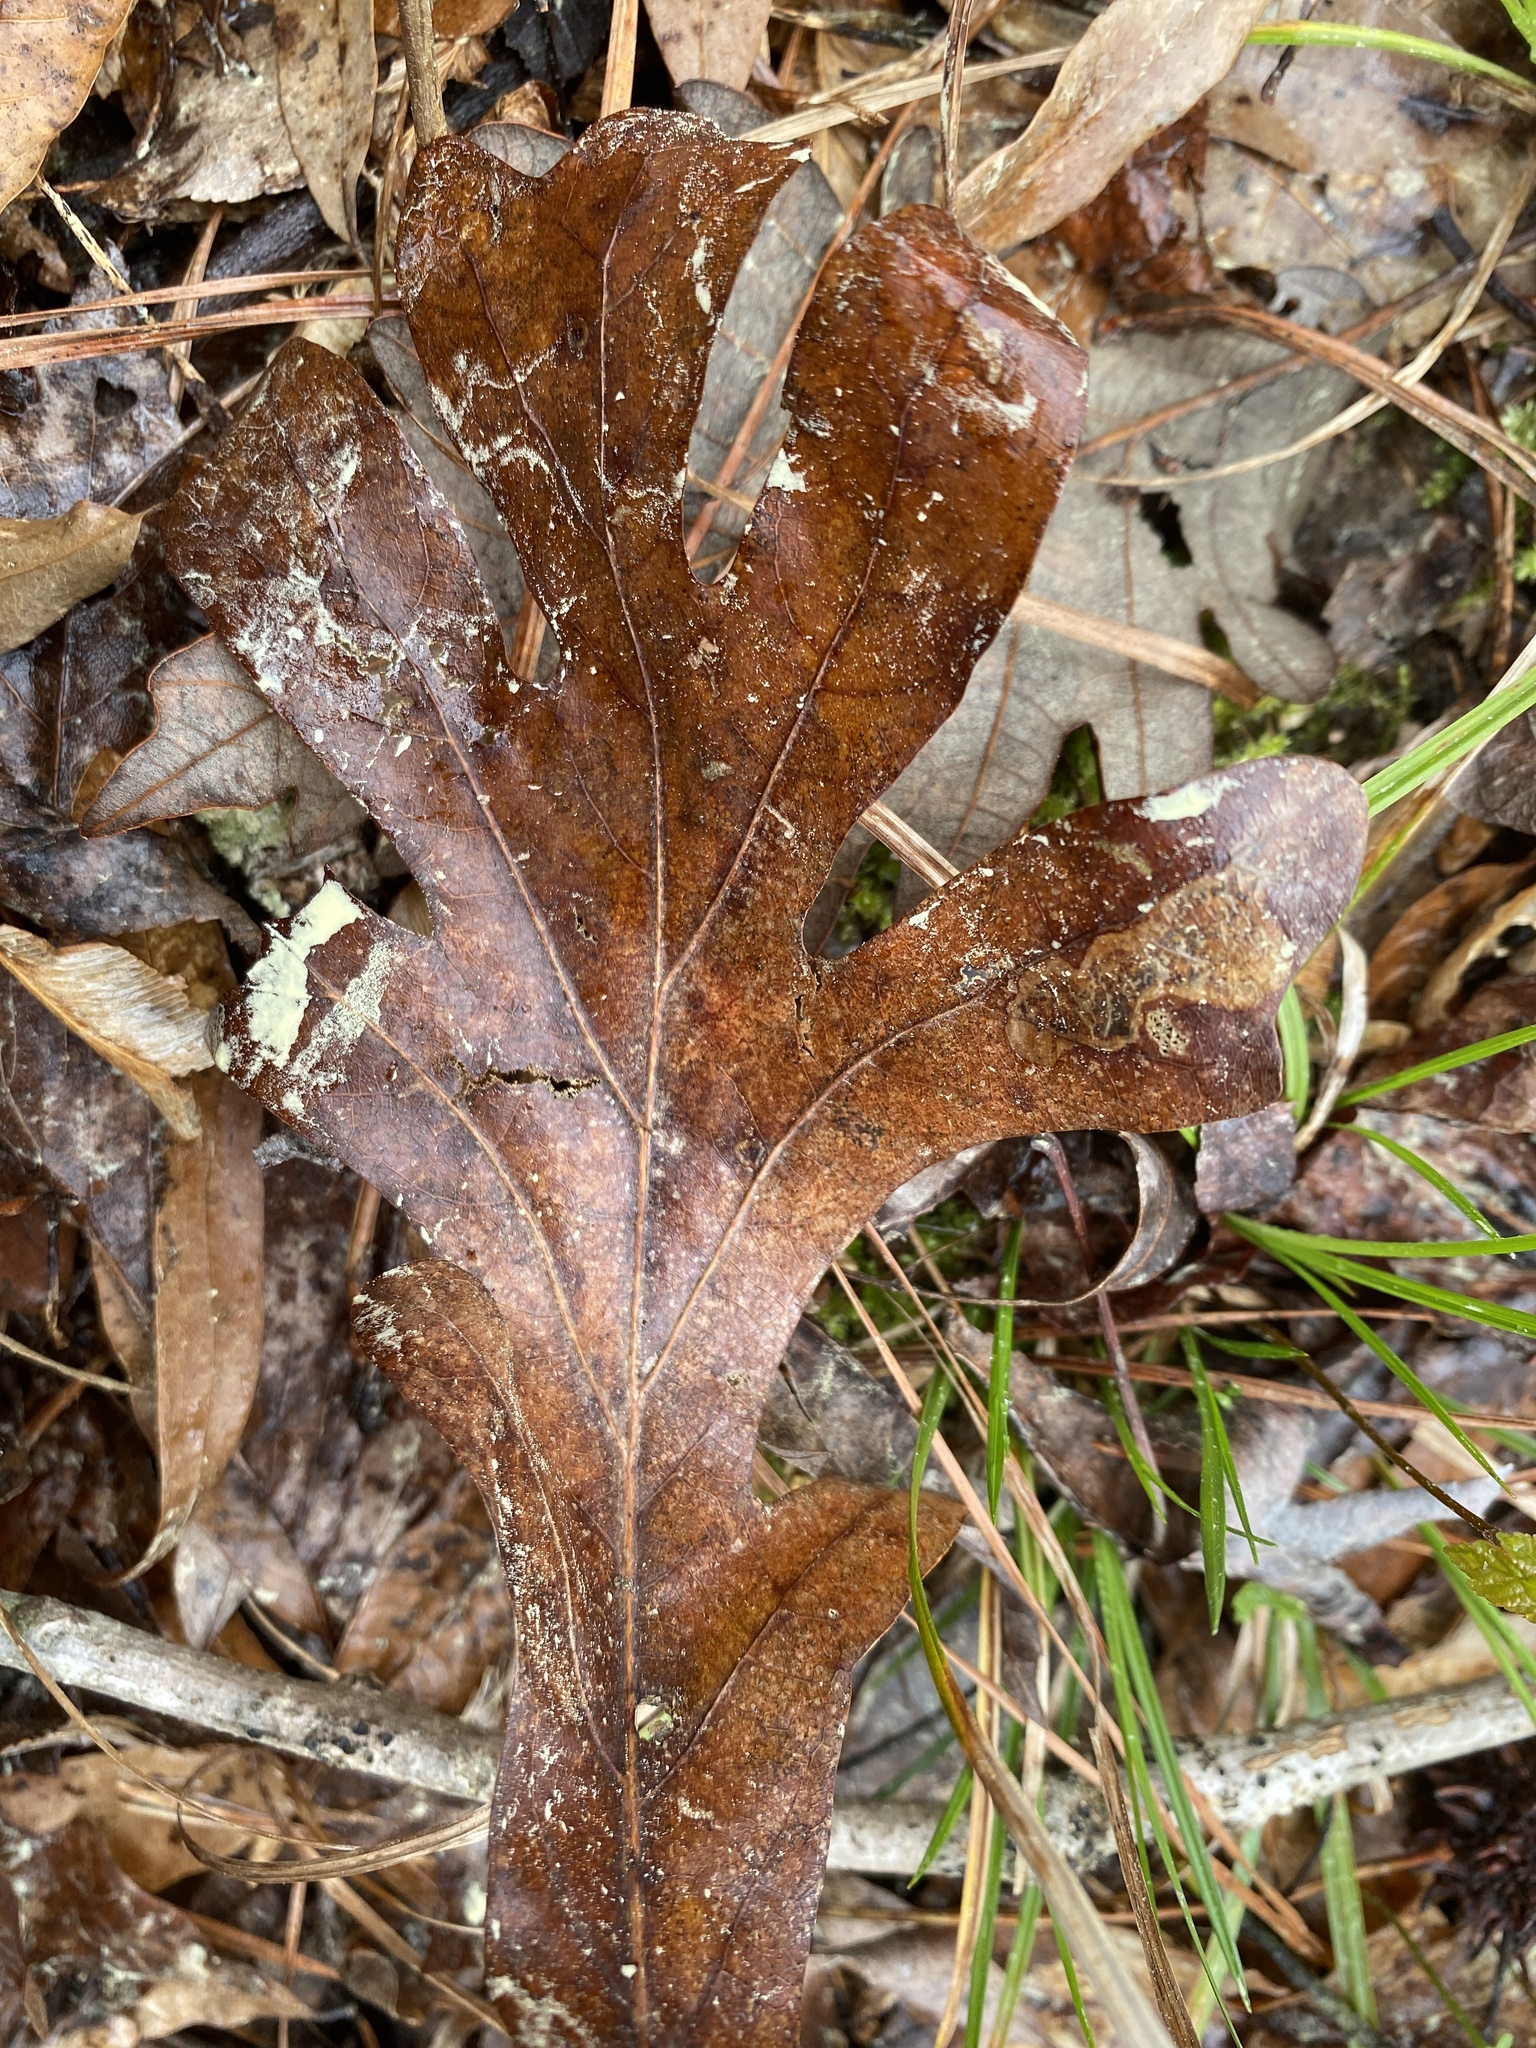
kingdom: Plantae
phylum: Tracheophyta
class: Magnoliopsida
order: Fagales
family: Fagaceae
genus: Quercus
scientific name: Quercus alba
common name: White oak
